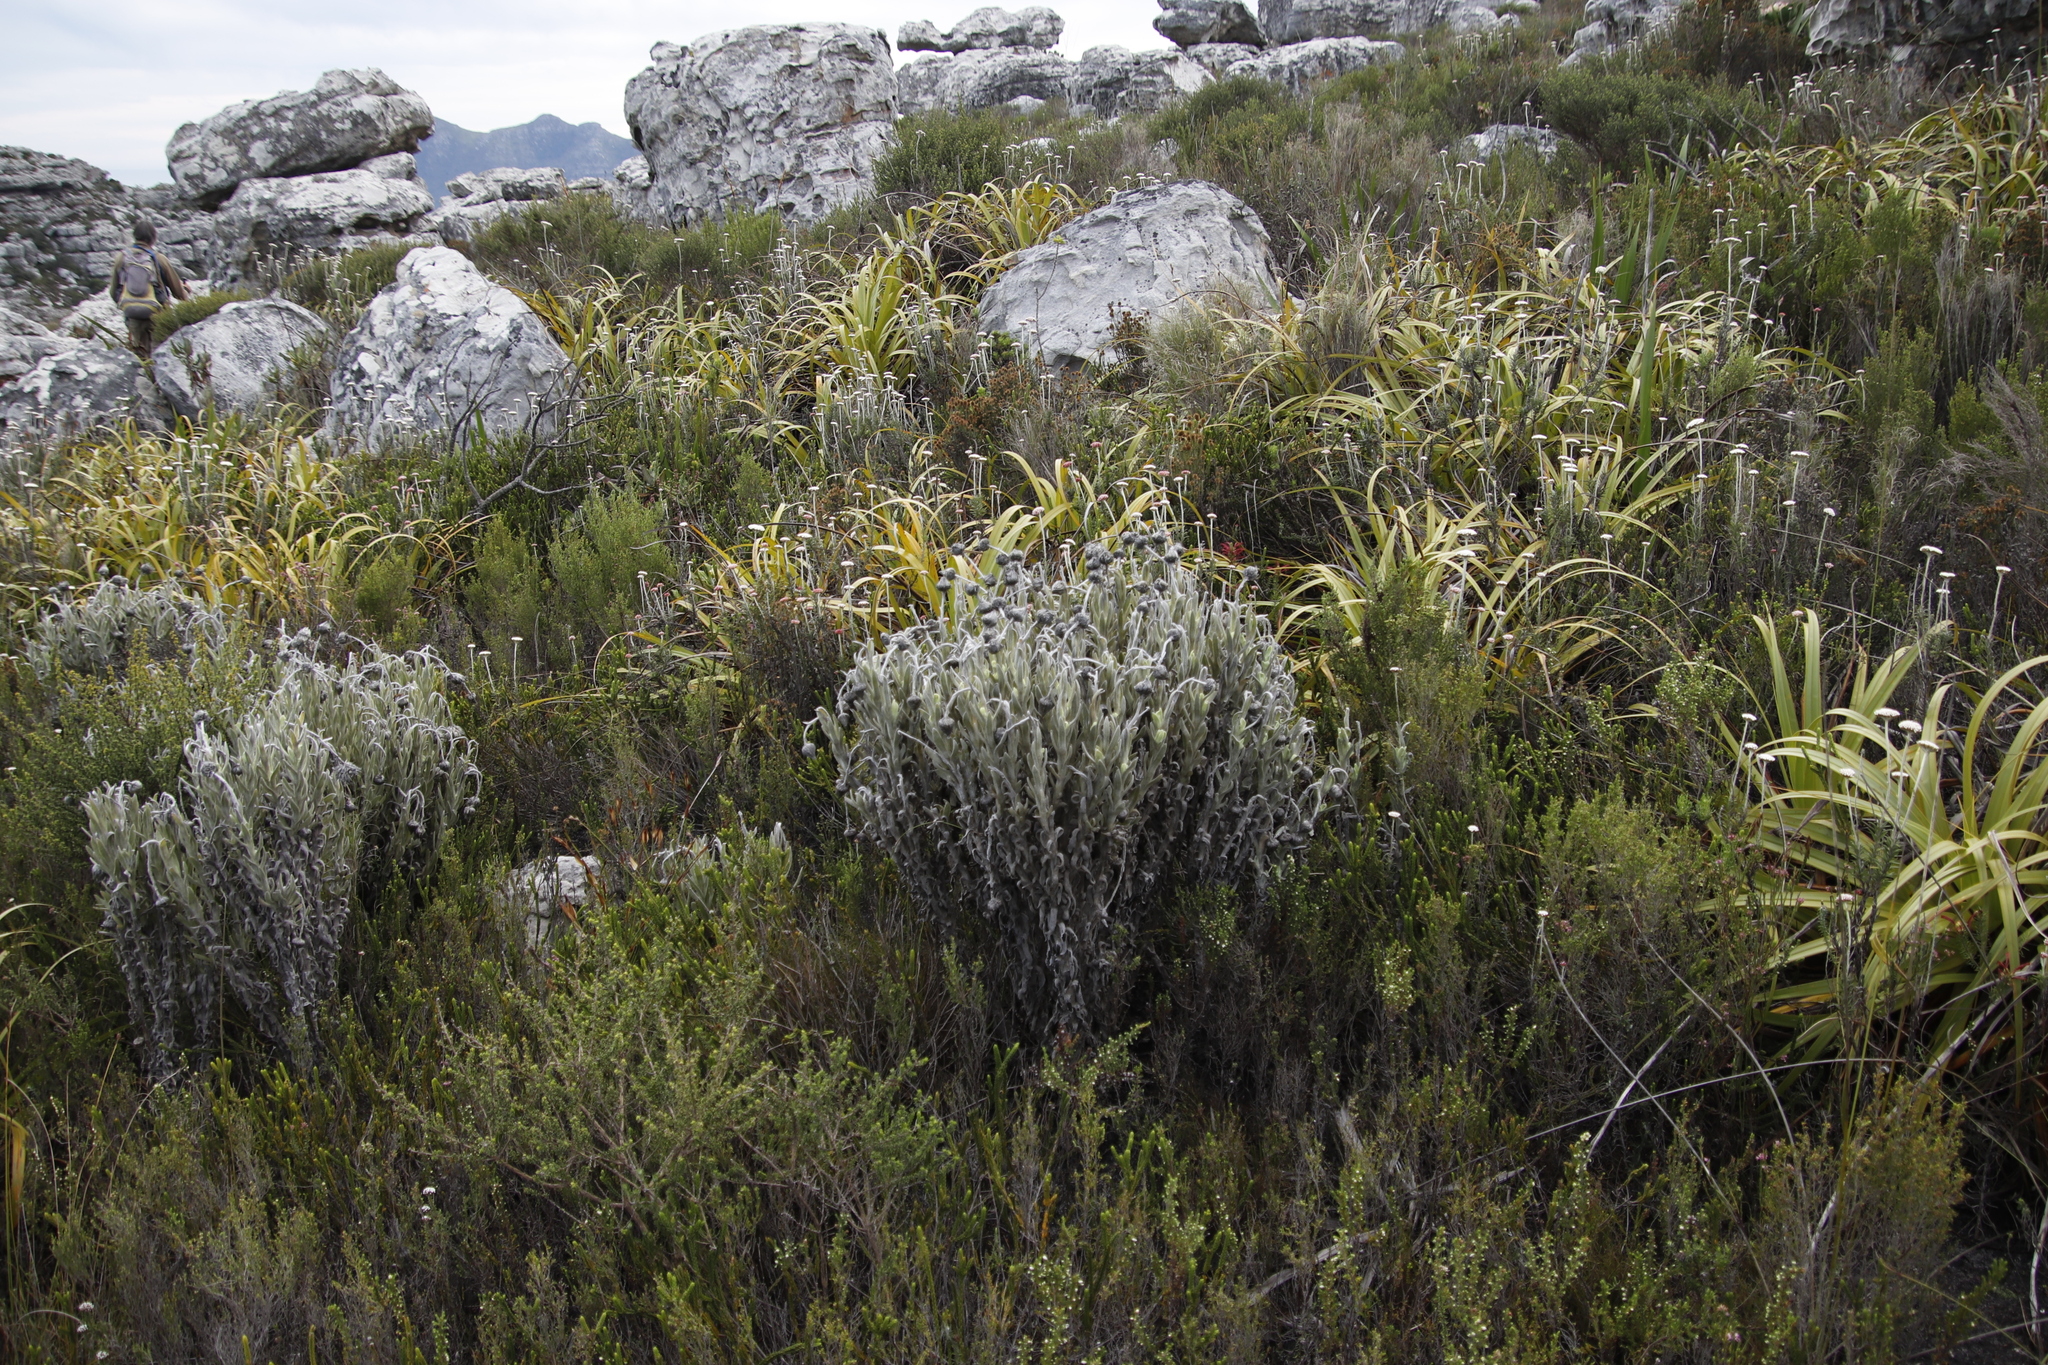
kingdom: Plantae
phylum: Tracheophyta
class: Magnoliopsida
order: Asterales
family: Asteraceae
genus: Syncarpha
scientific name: Syncarpha vestita
